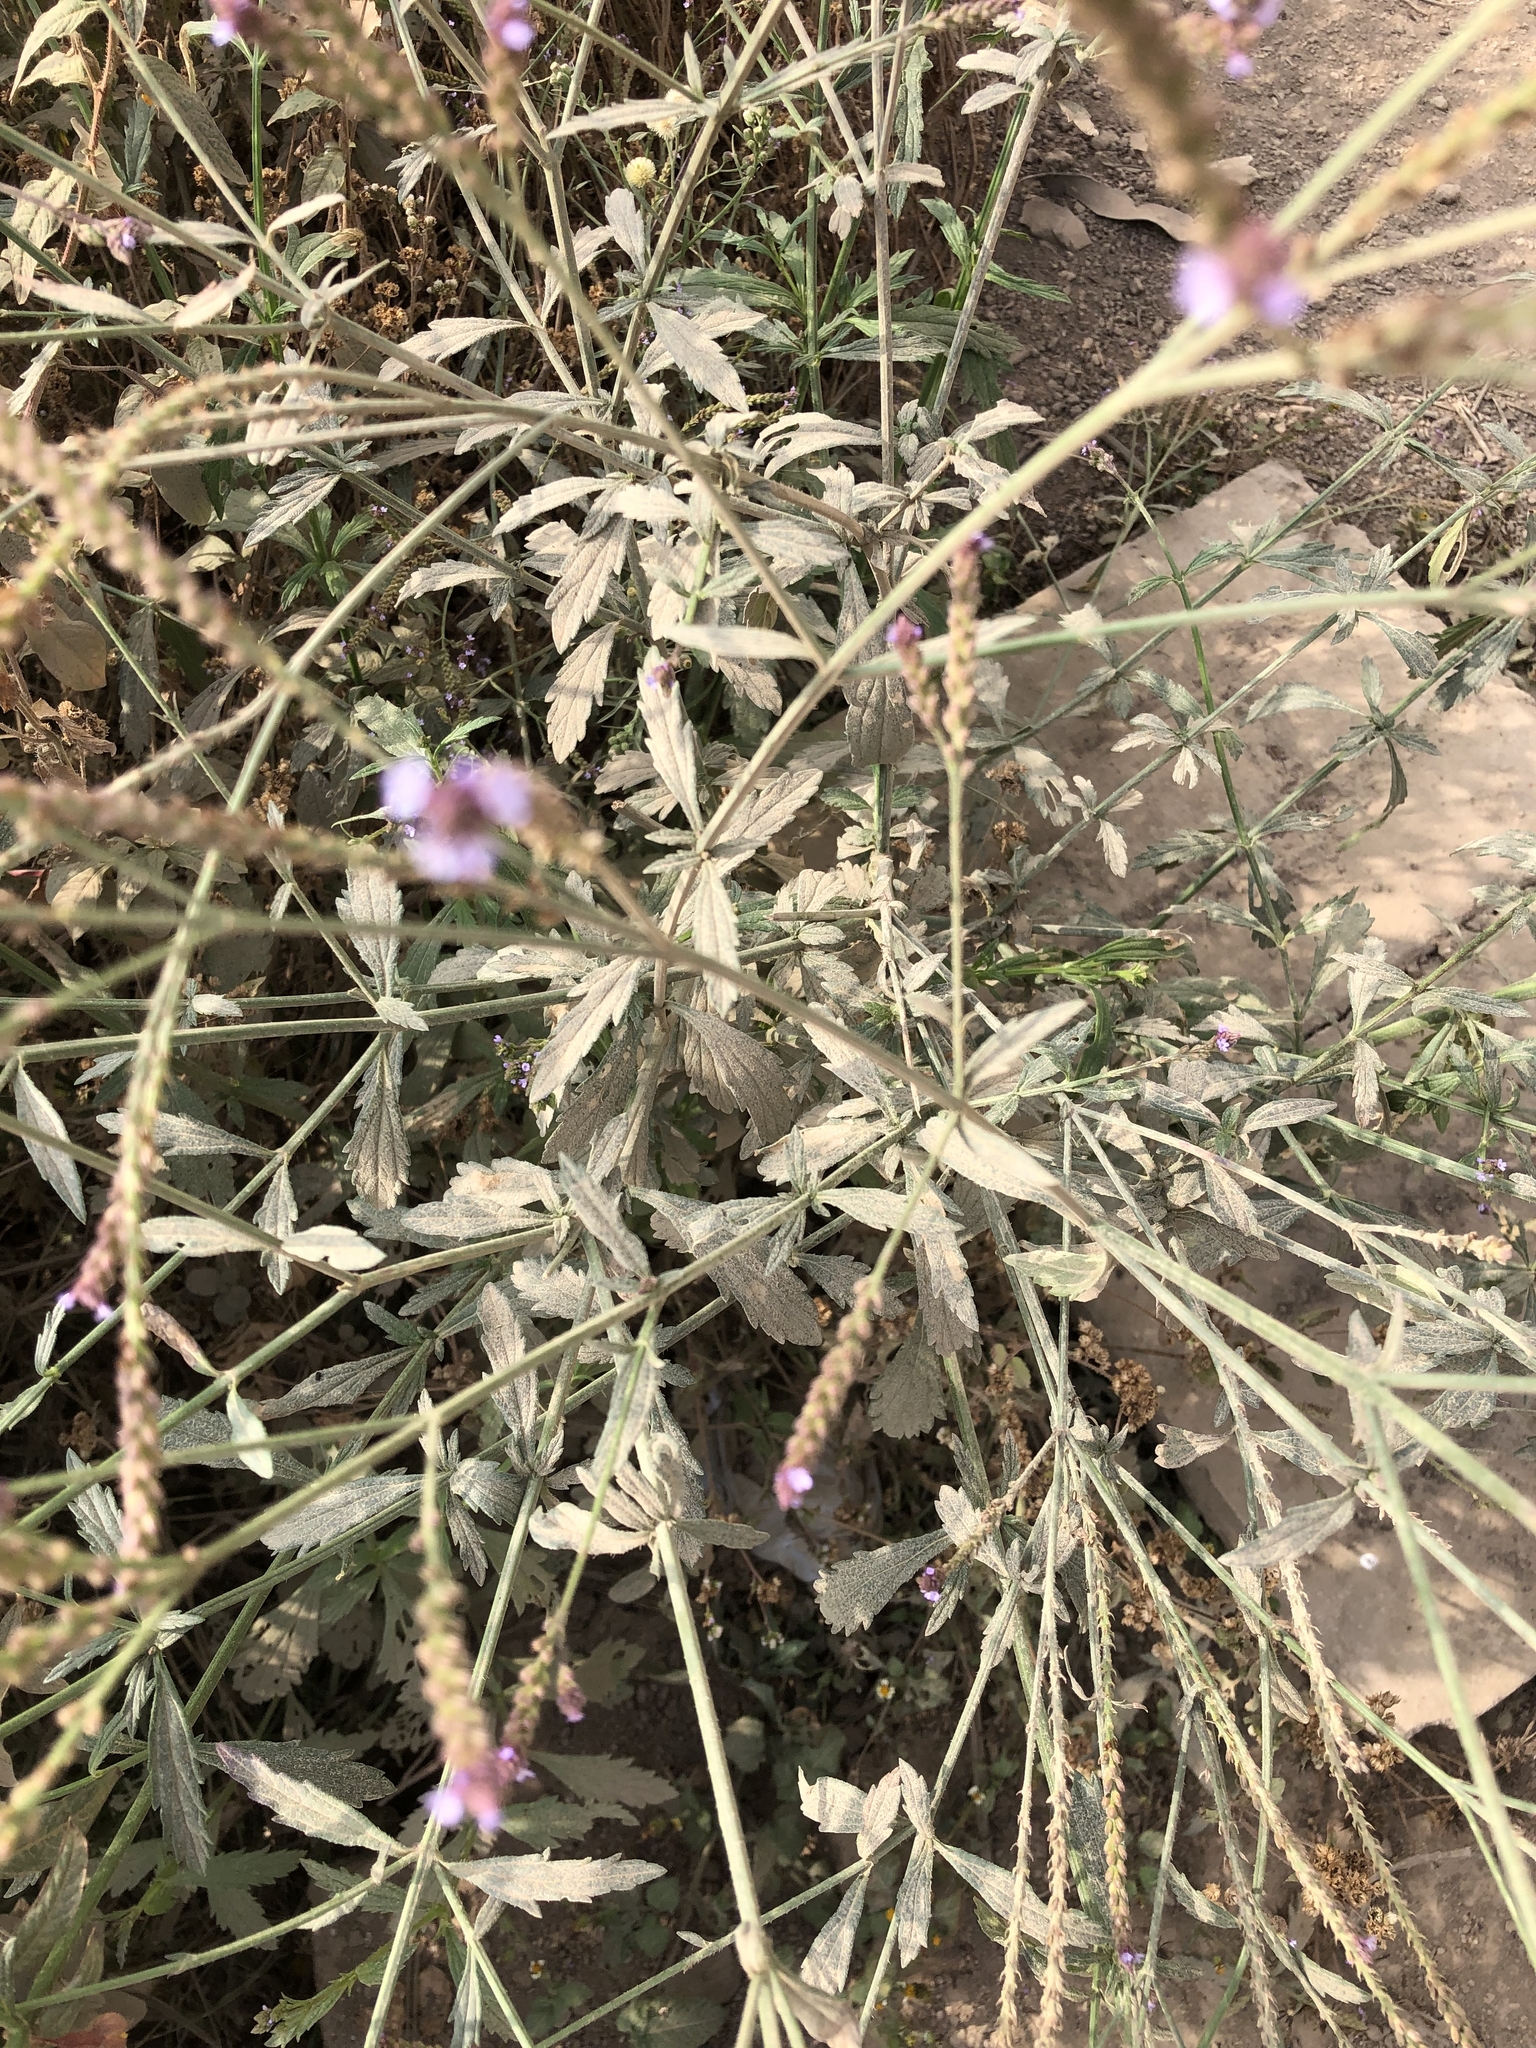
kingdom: Plantae
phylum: Tracheophyta
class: Magnoliopsida
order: Lamiales
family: Verbenaceae
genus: Verbena
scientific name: Verbena litoralis
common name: Seashore vervain
